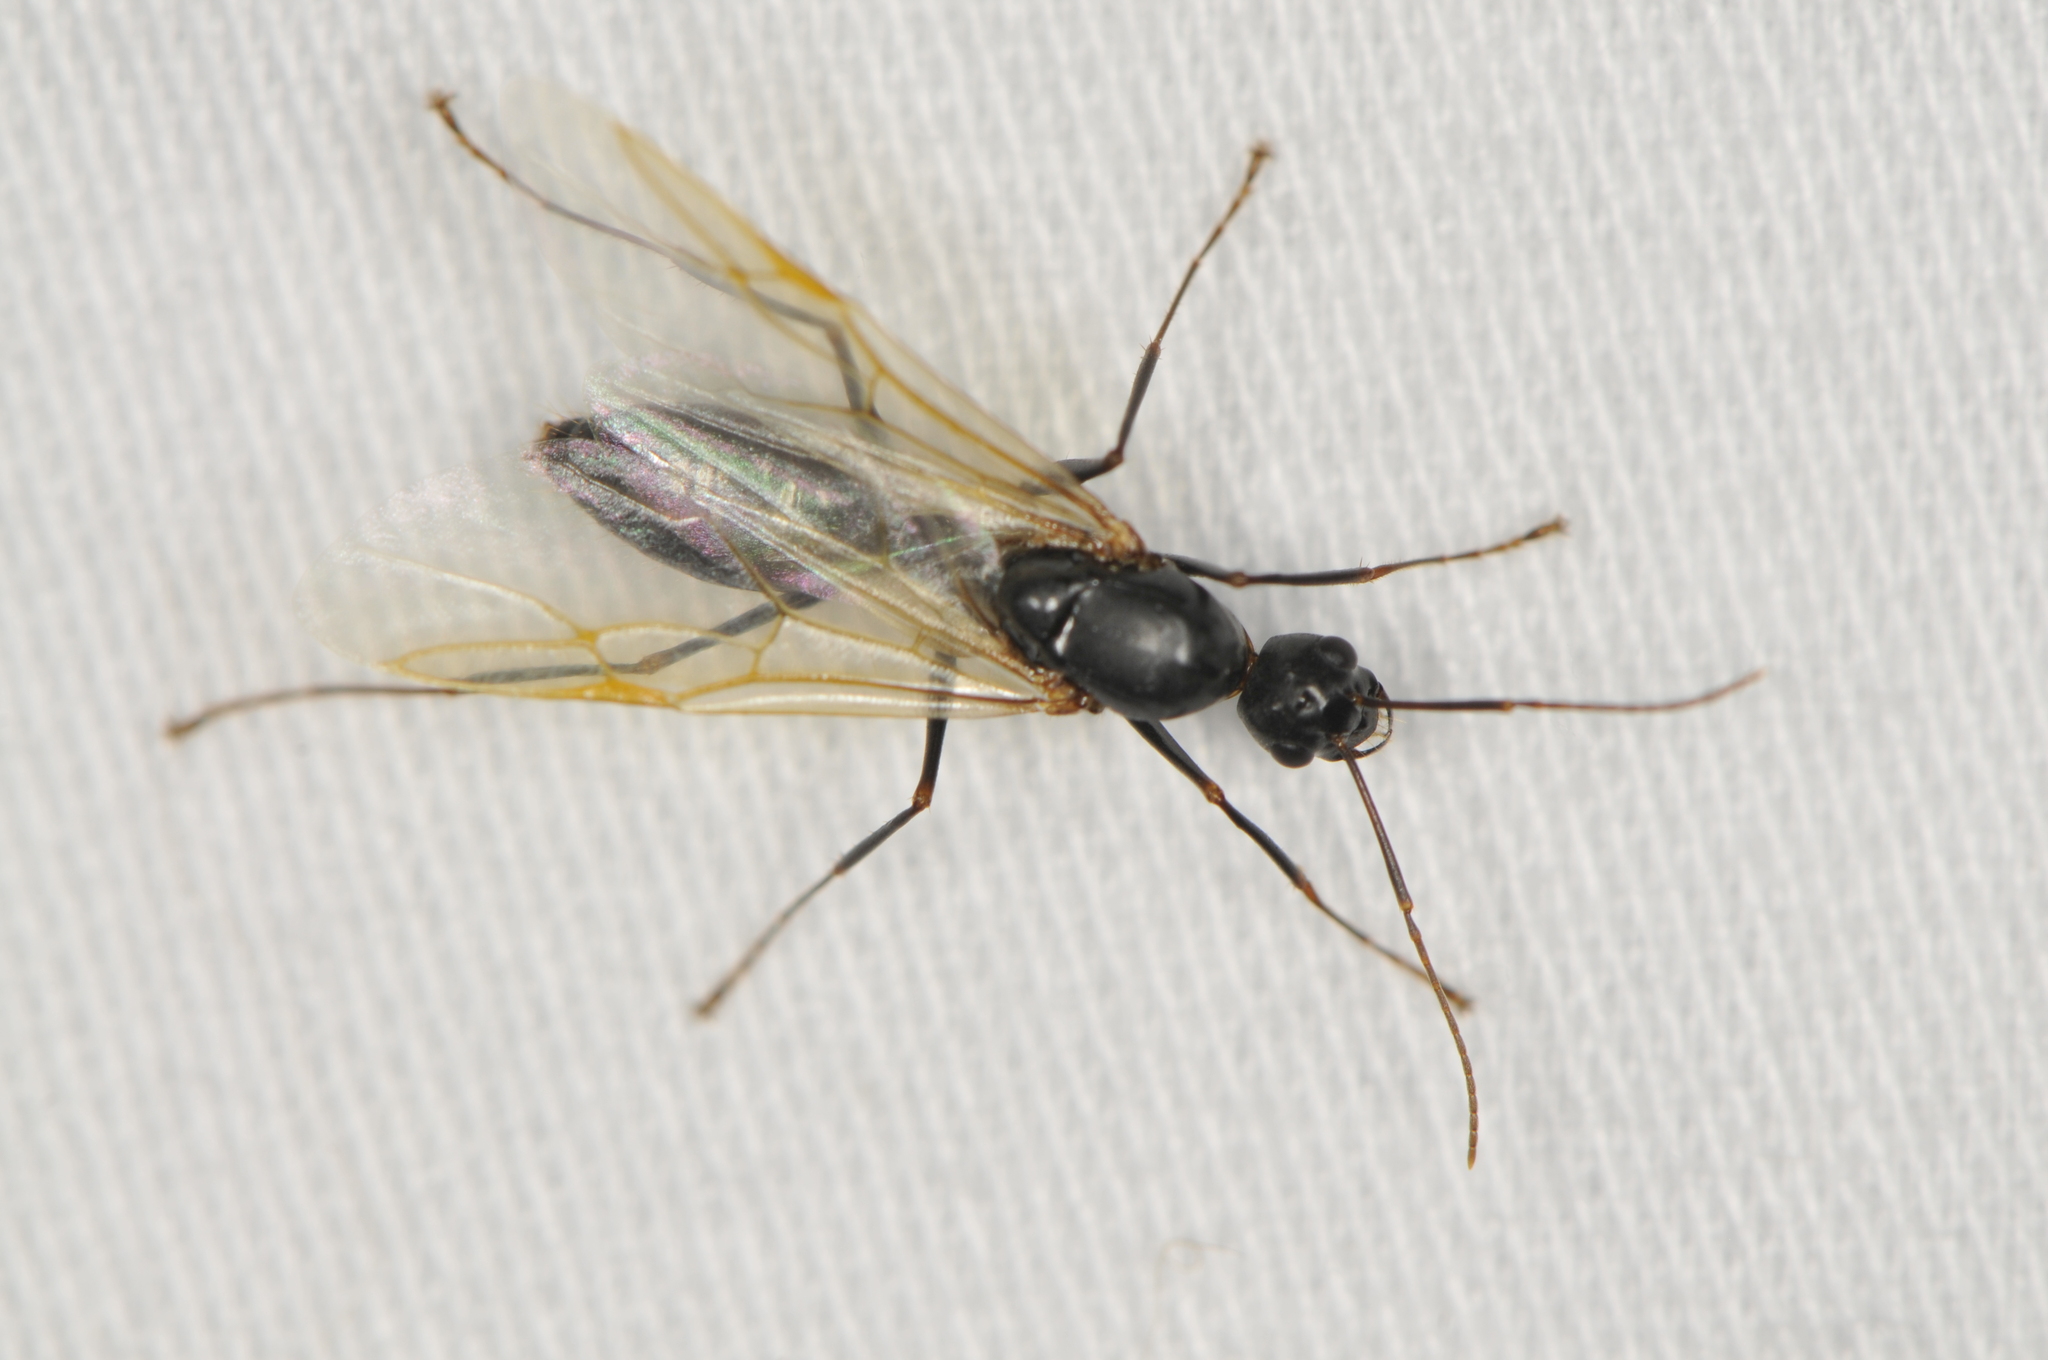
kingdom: Animalia
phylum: Arthropoda
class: Insecta
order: Hymenoptera
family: Formicidae
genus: Camponotus
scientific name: Camponotus
